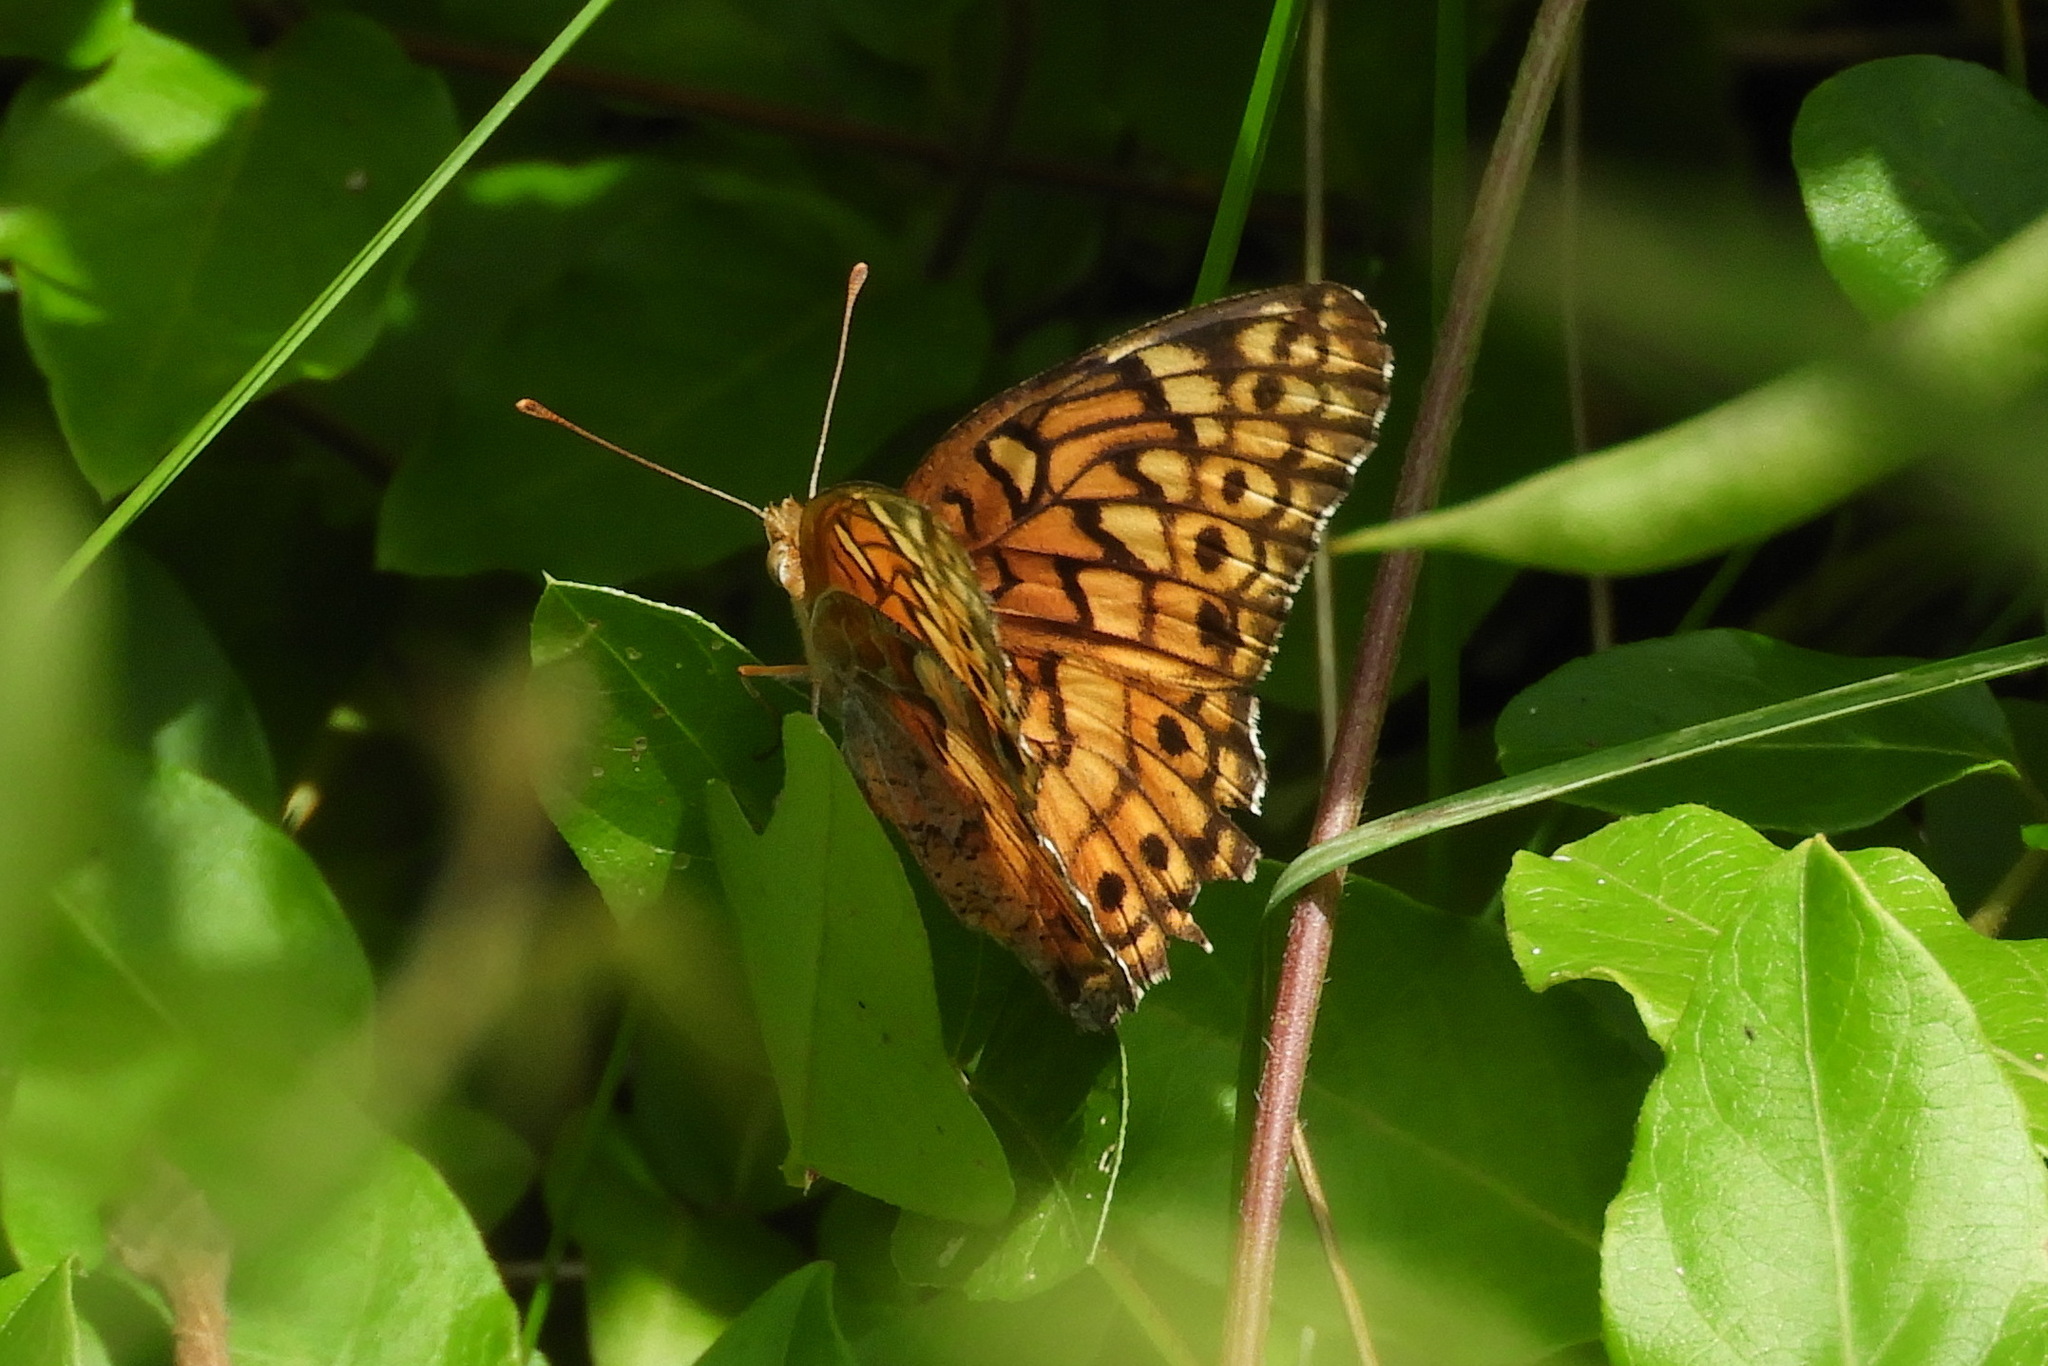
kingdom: Animalia
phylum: Arthropoda
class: Insecta
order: Lepidoptera
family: Nymphalidae
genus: Euptoieta
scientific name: Euptoieta claudia
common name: Variegated fritillary
